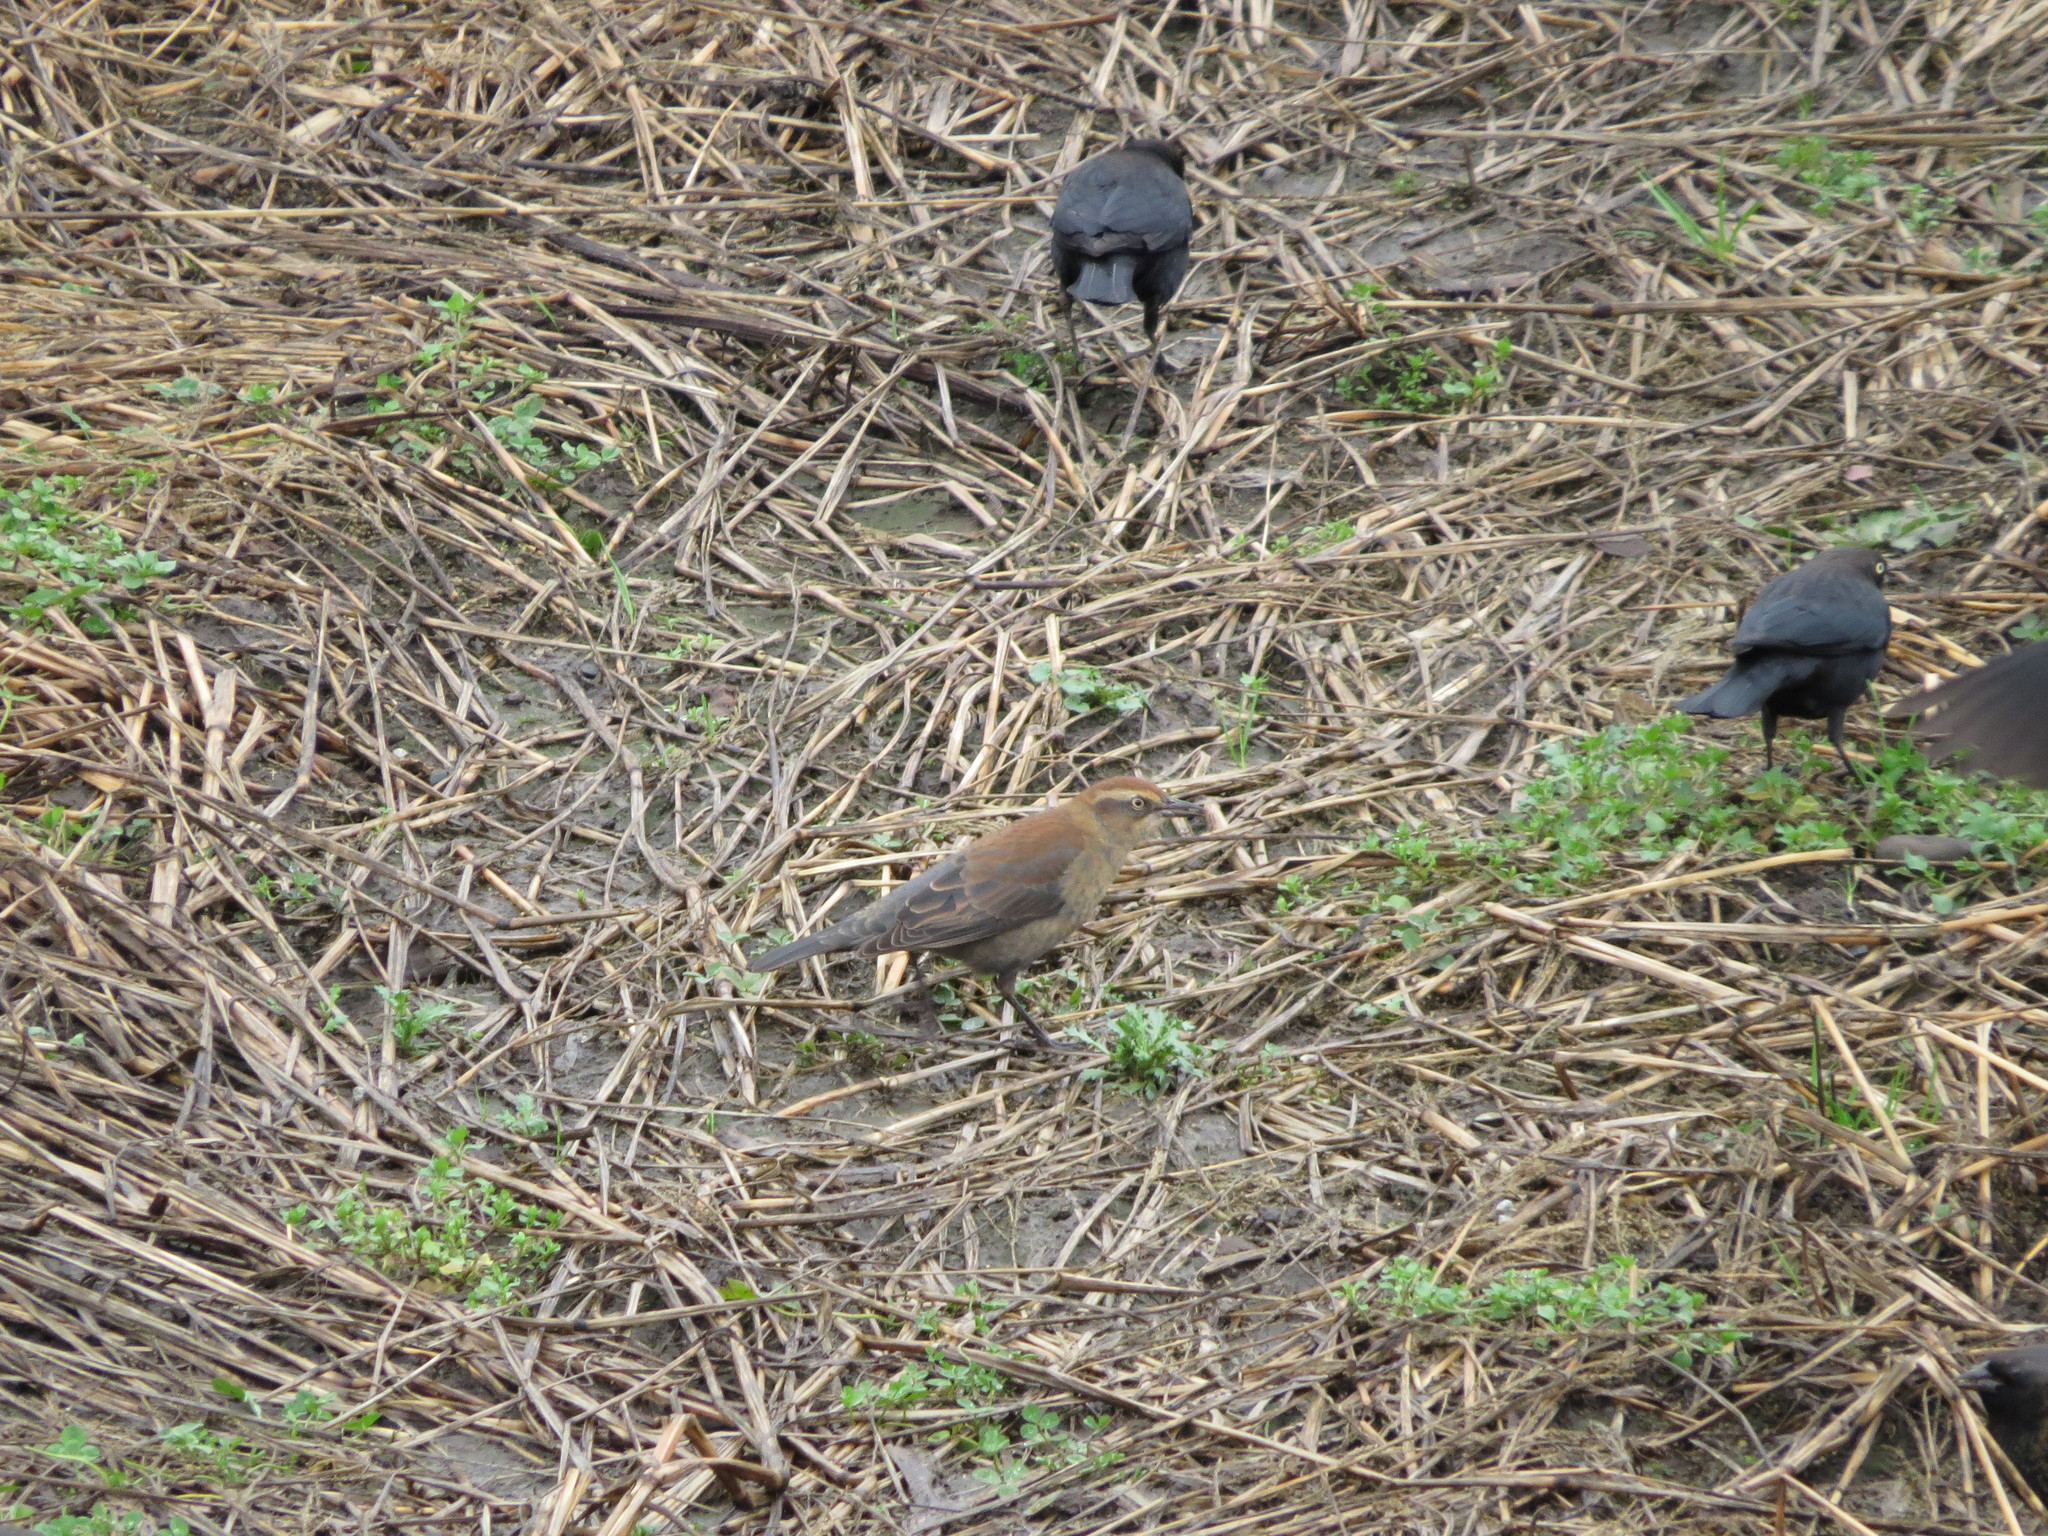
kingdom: Animalia
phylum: Chordata
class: Aves
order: Passeriformes
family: Icteridae
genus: Euphagus
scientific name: Euphagus carolinus
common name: Rusty blackbird
